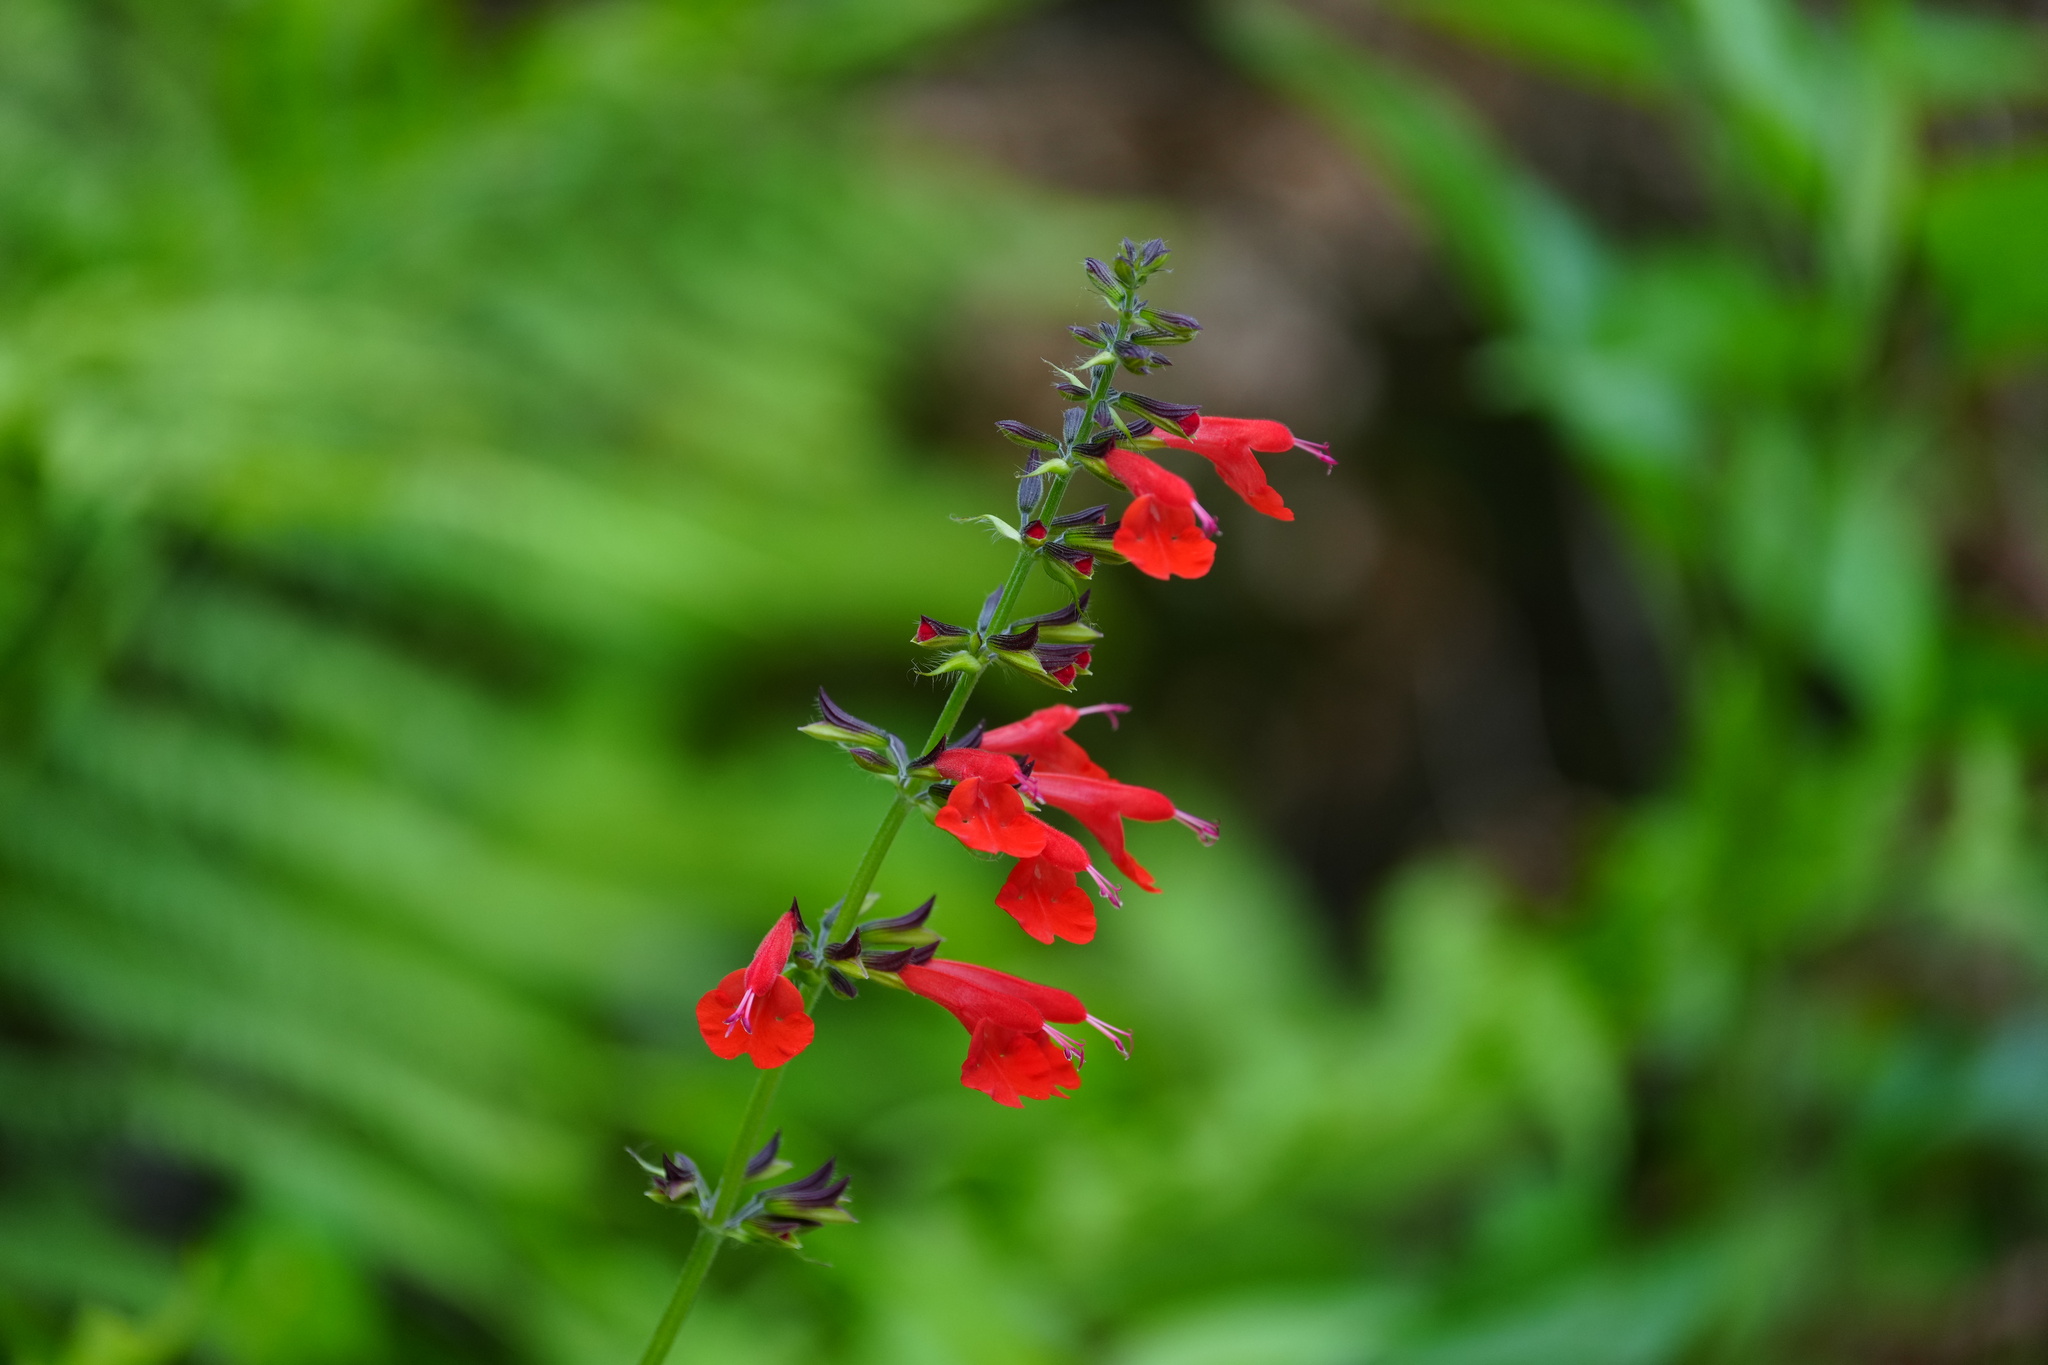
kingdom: Plantae
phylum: Tracheophyta
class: Magnoliopsida
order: Lamiales
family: Lamiaceae
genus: Salvia
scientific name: Salvia coccinea
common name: Blood sage
